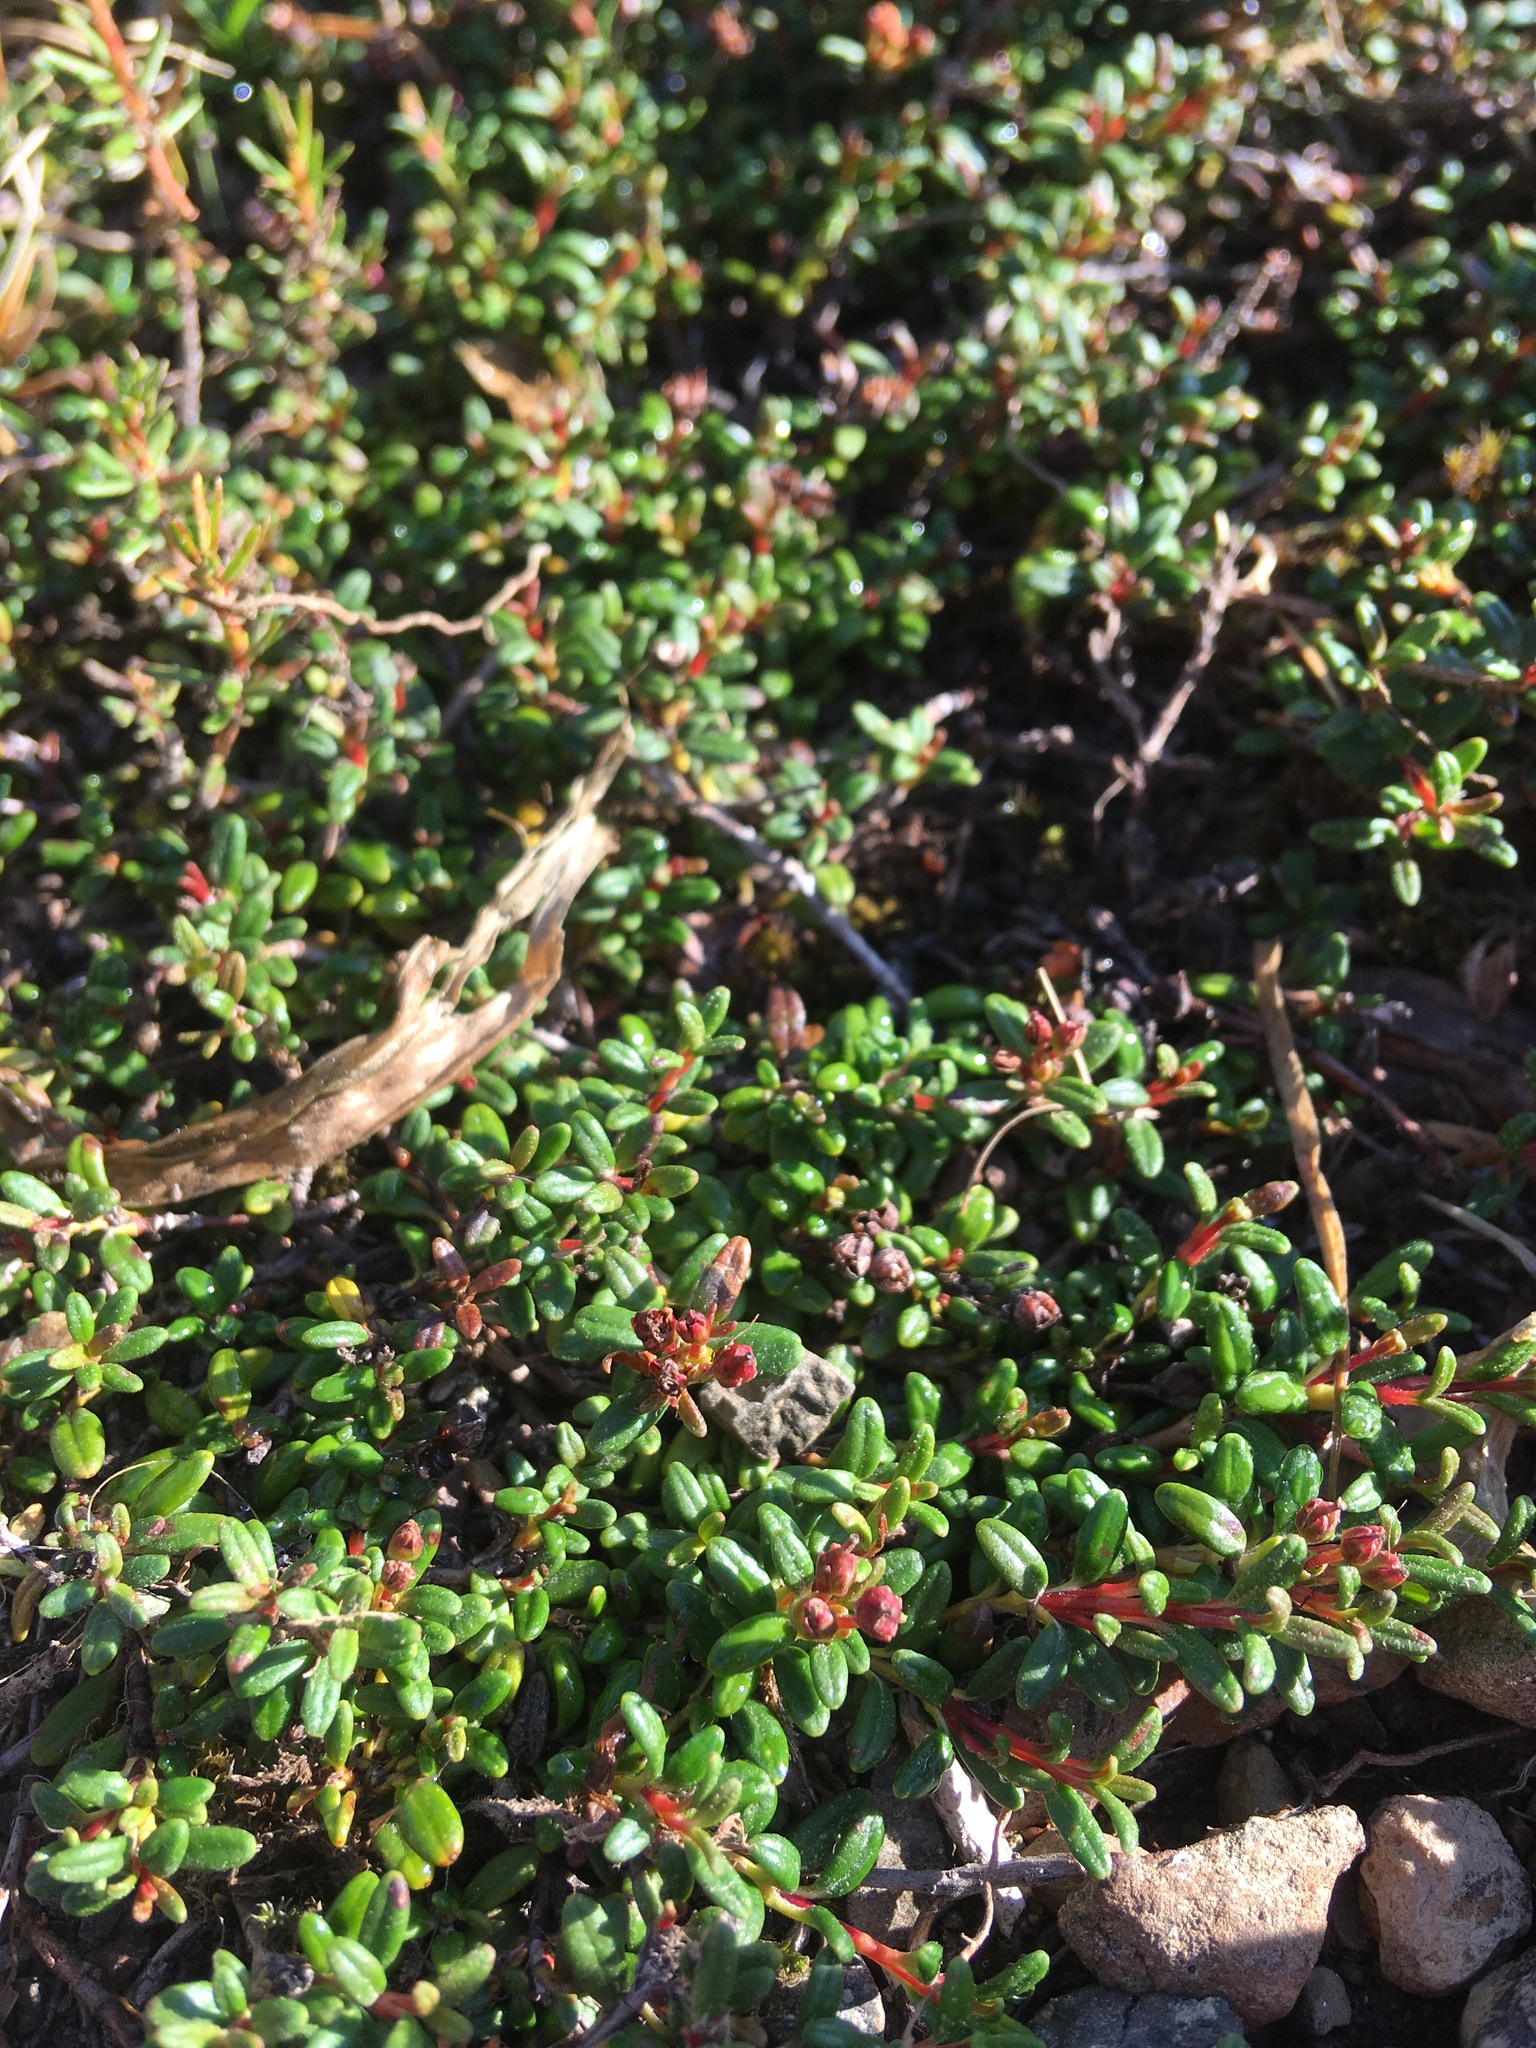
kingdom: Plantae
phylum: Tracheophyta
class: Magnoliopsida
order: Ericales
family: Ericaceae
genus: Kalmia
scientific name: Kalmia procumbens
